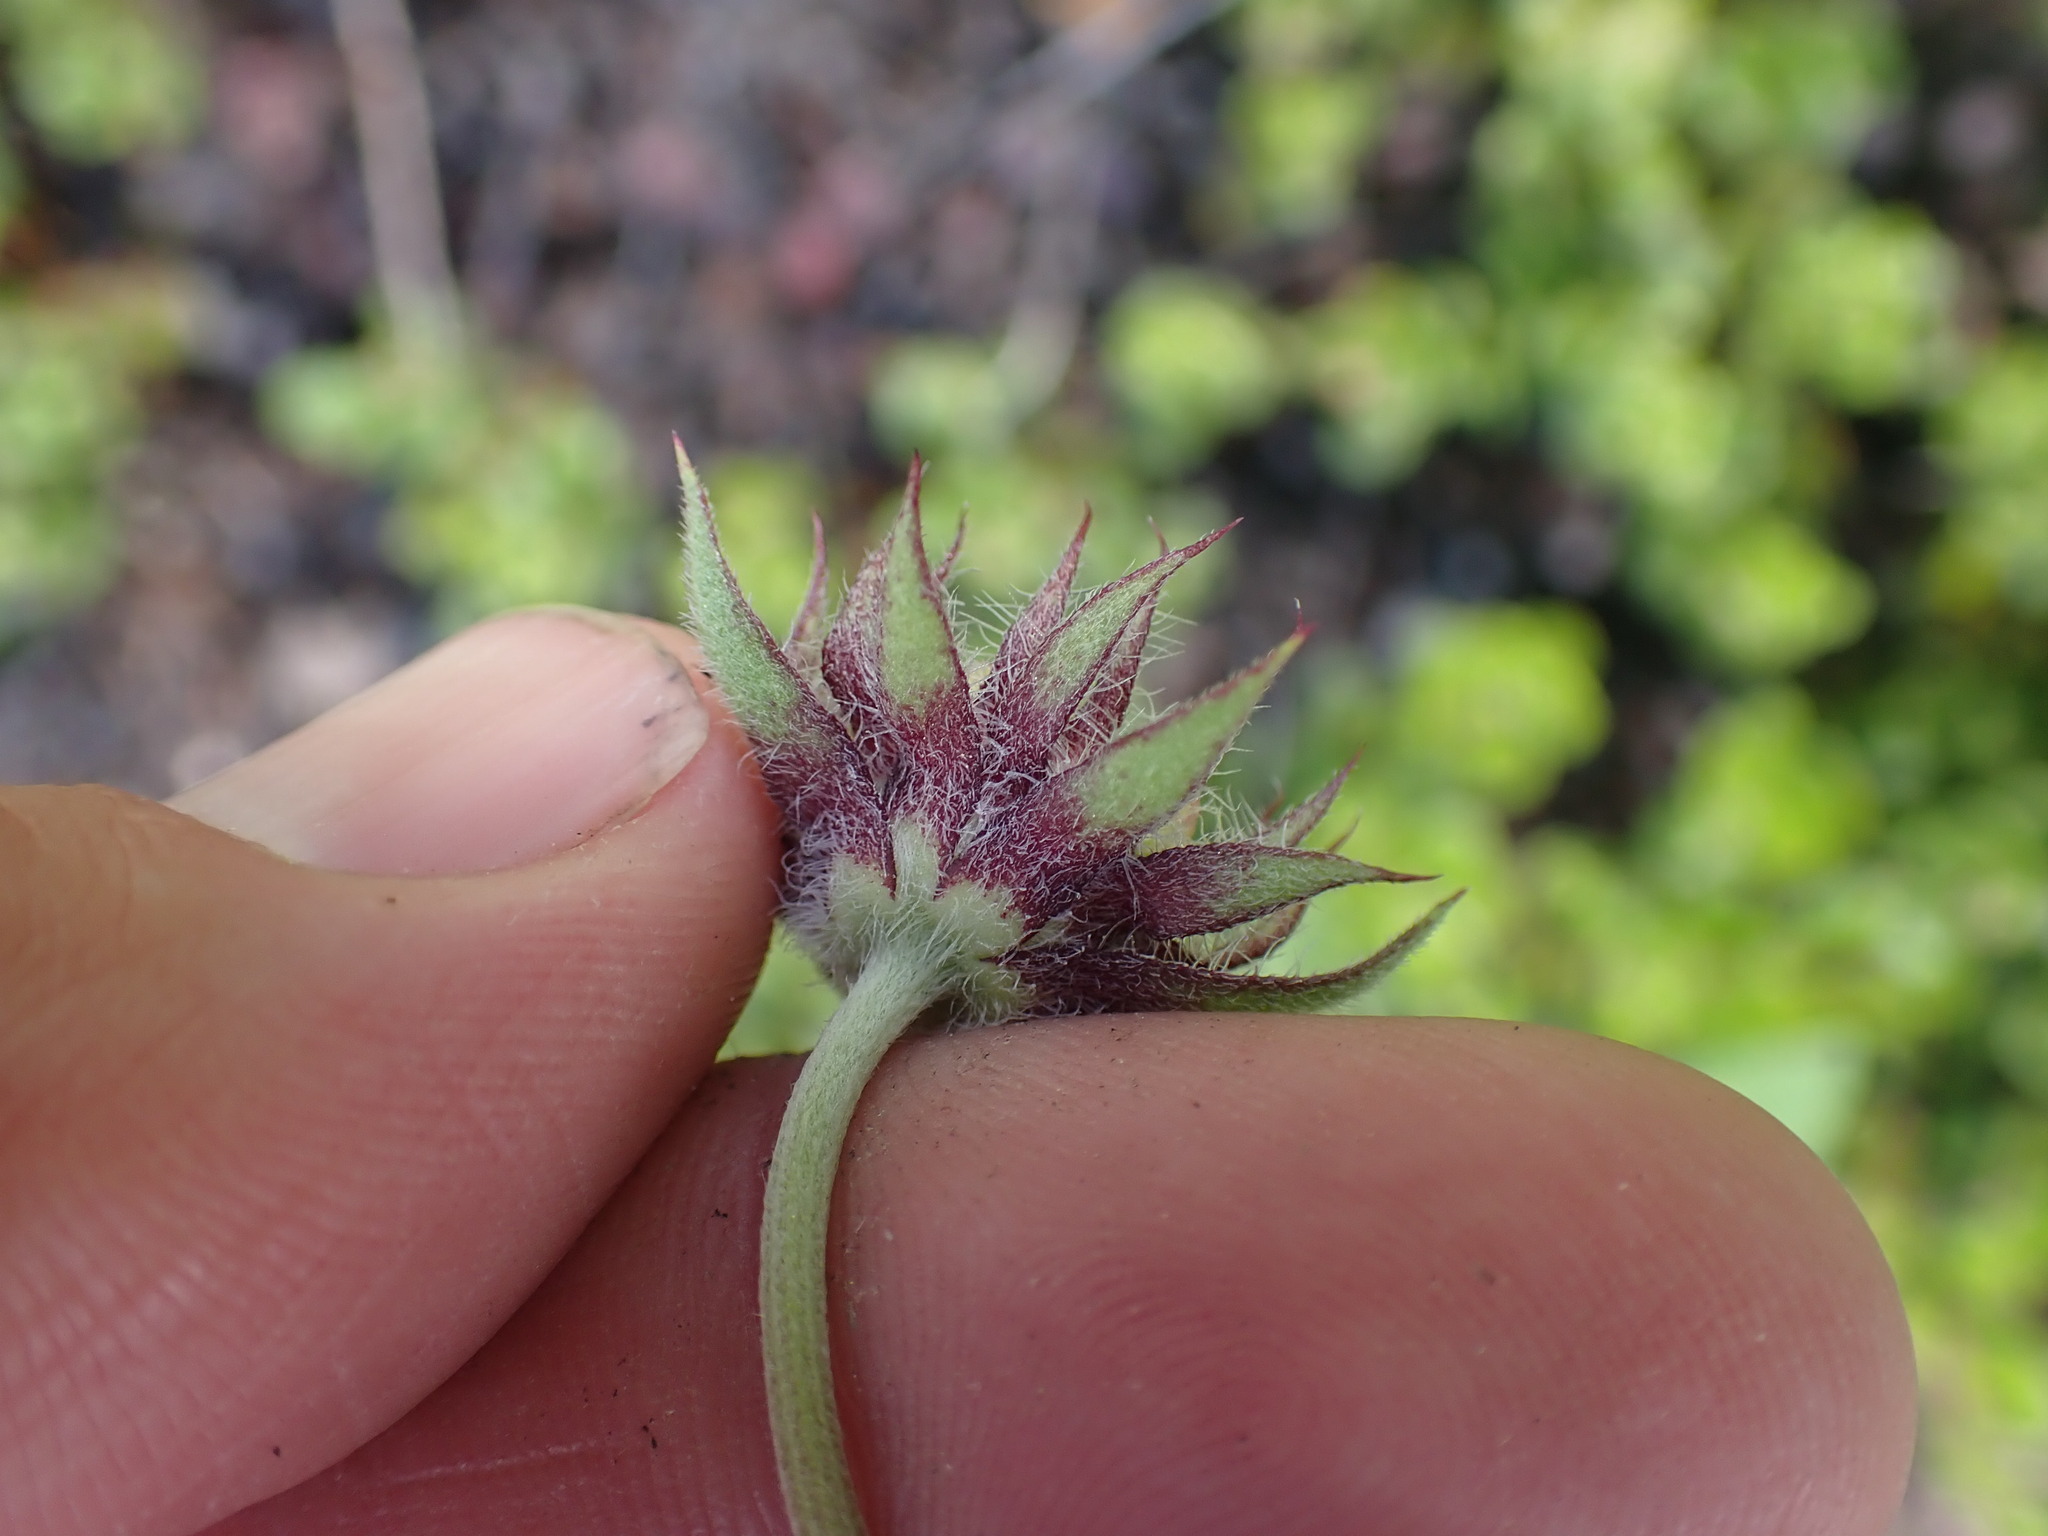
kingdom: Plantae
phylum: Tracheophyta
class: Magnoliopsida
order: Asterales
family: Asteraceae
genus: Gaillardia
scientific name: Gaillardia aristata
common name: Blanket-flower
